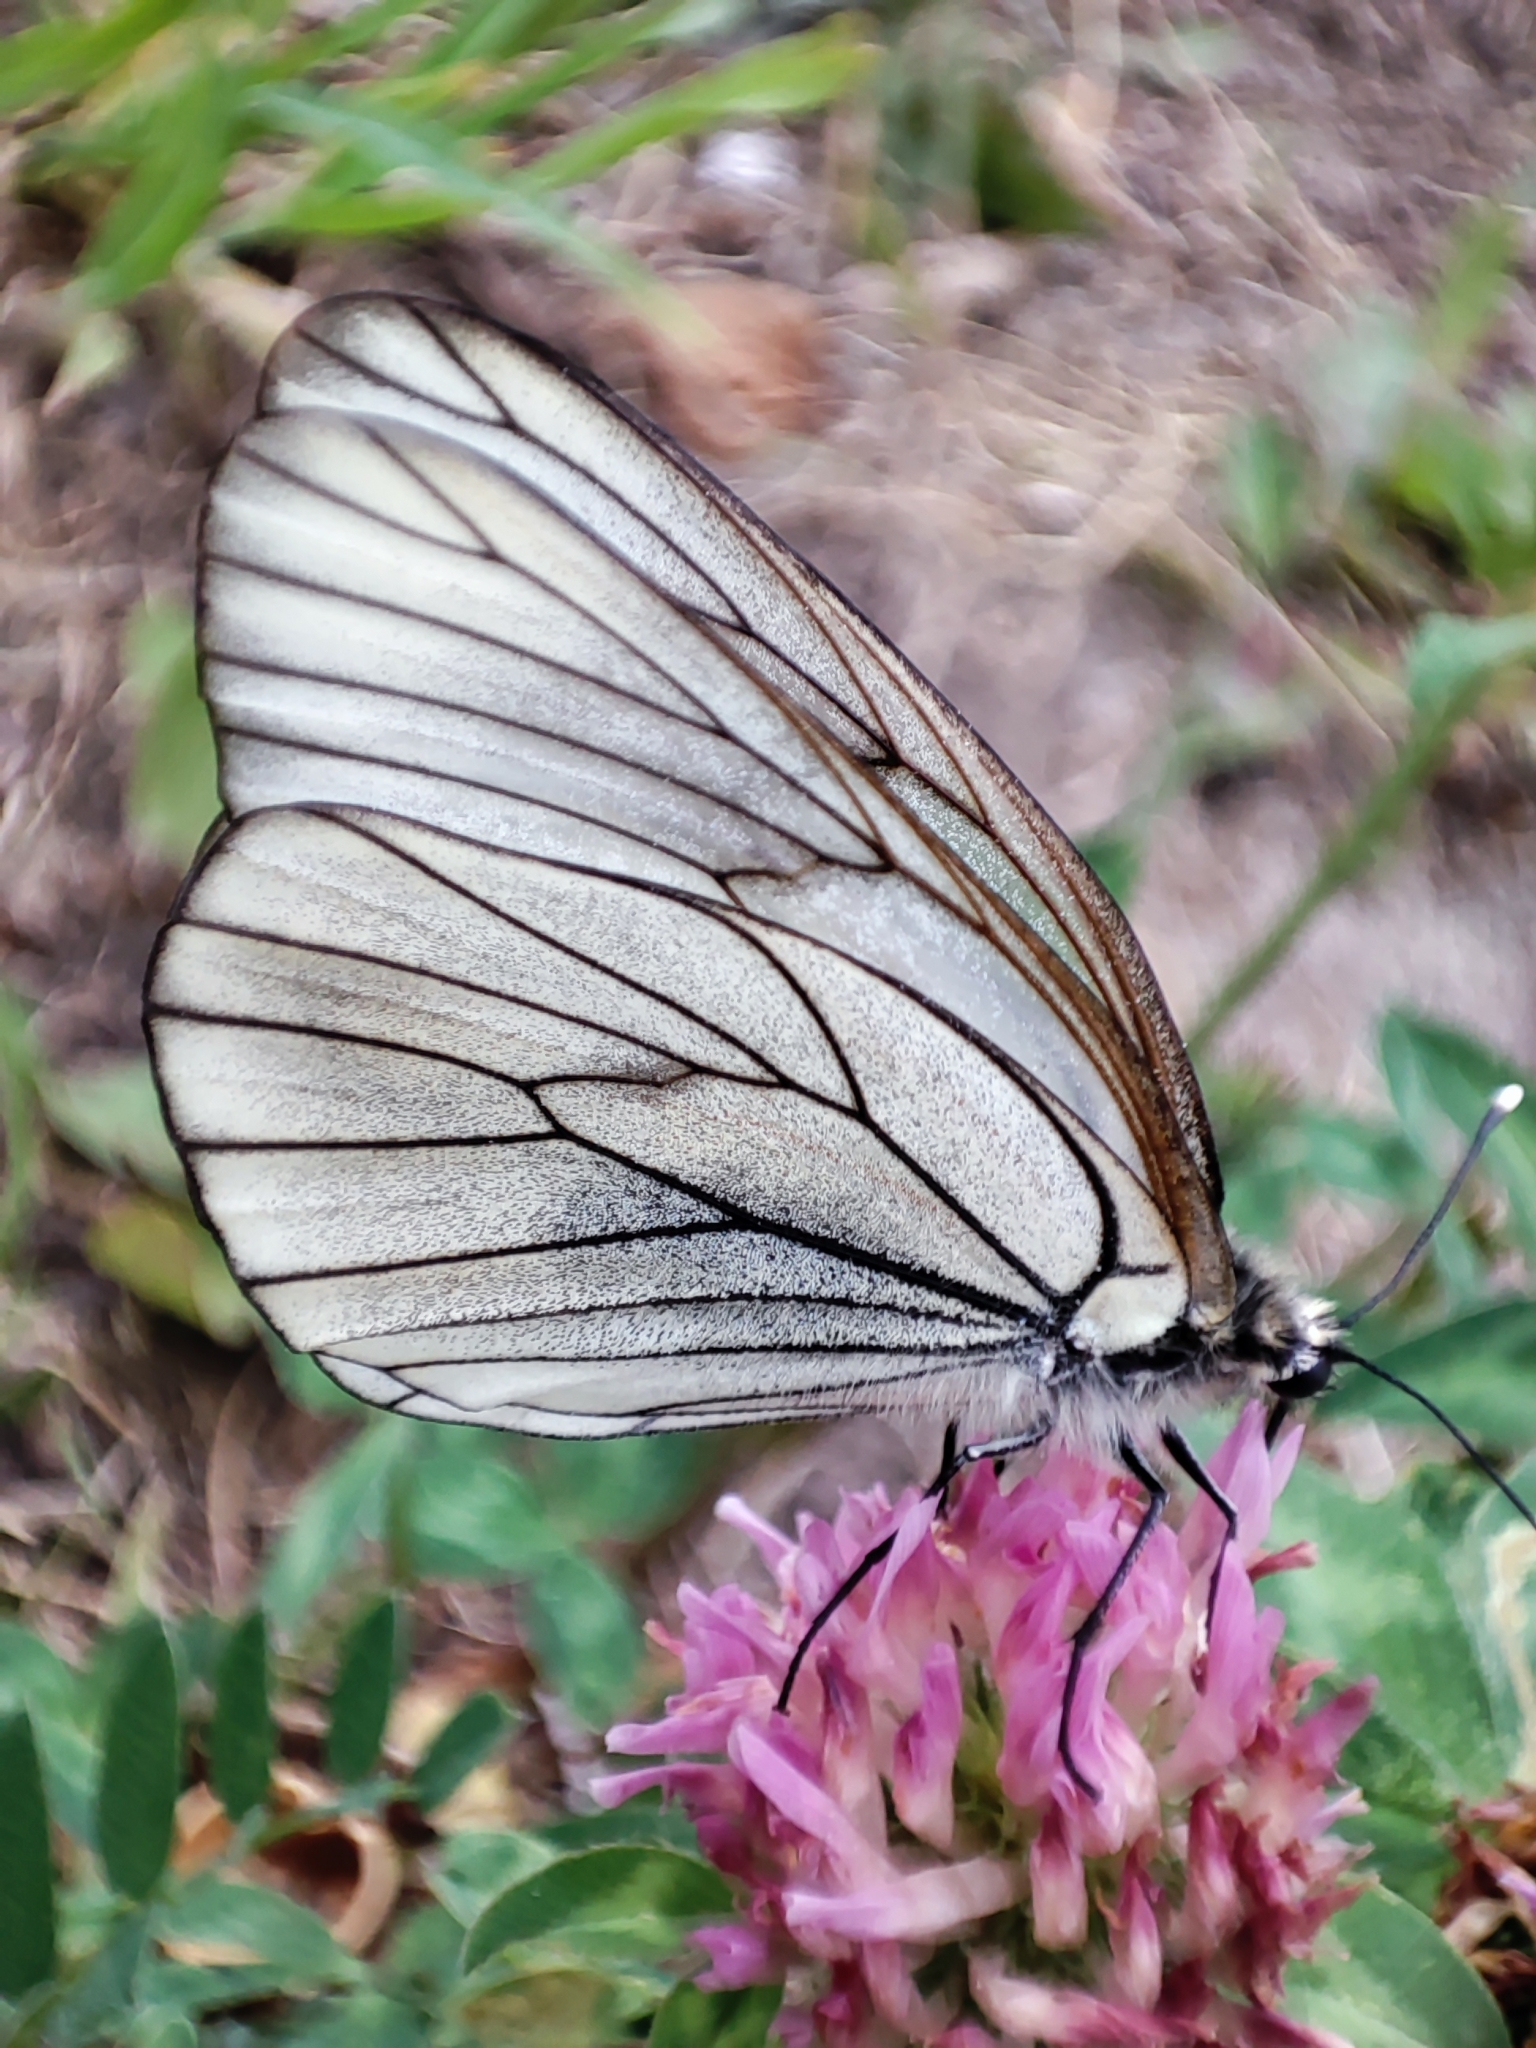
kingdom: Animalia
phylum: Arthropoda
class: Insecta
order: Lepidoptera
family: Pieridae
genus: Aporia
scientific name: Aporia crataegi
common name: Black-veined white
